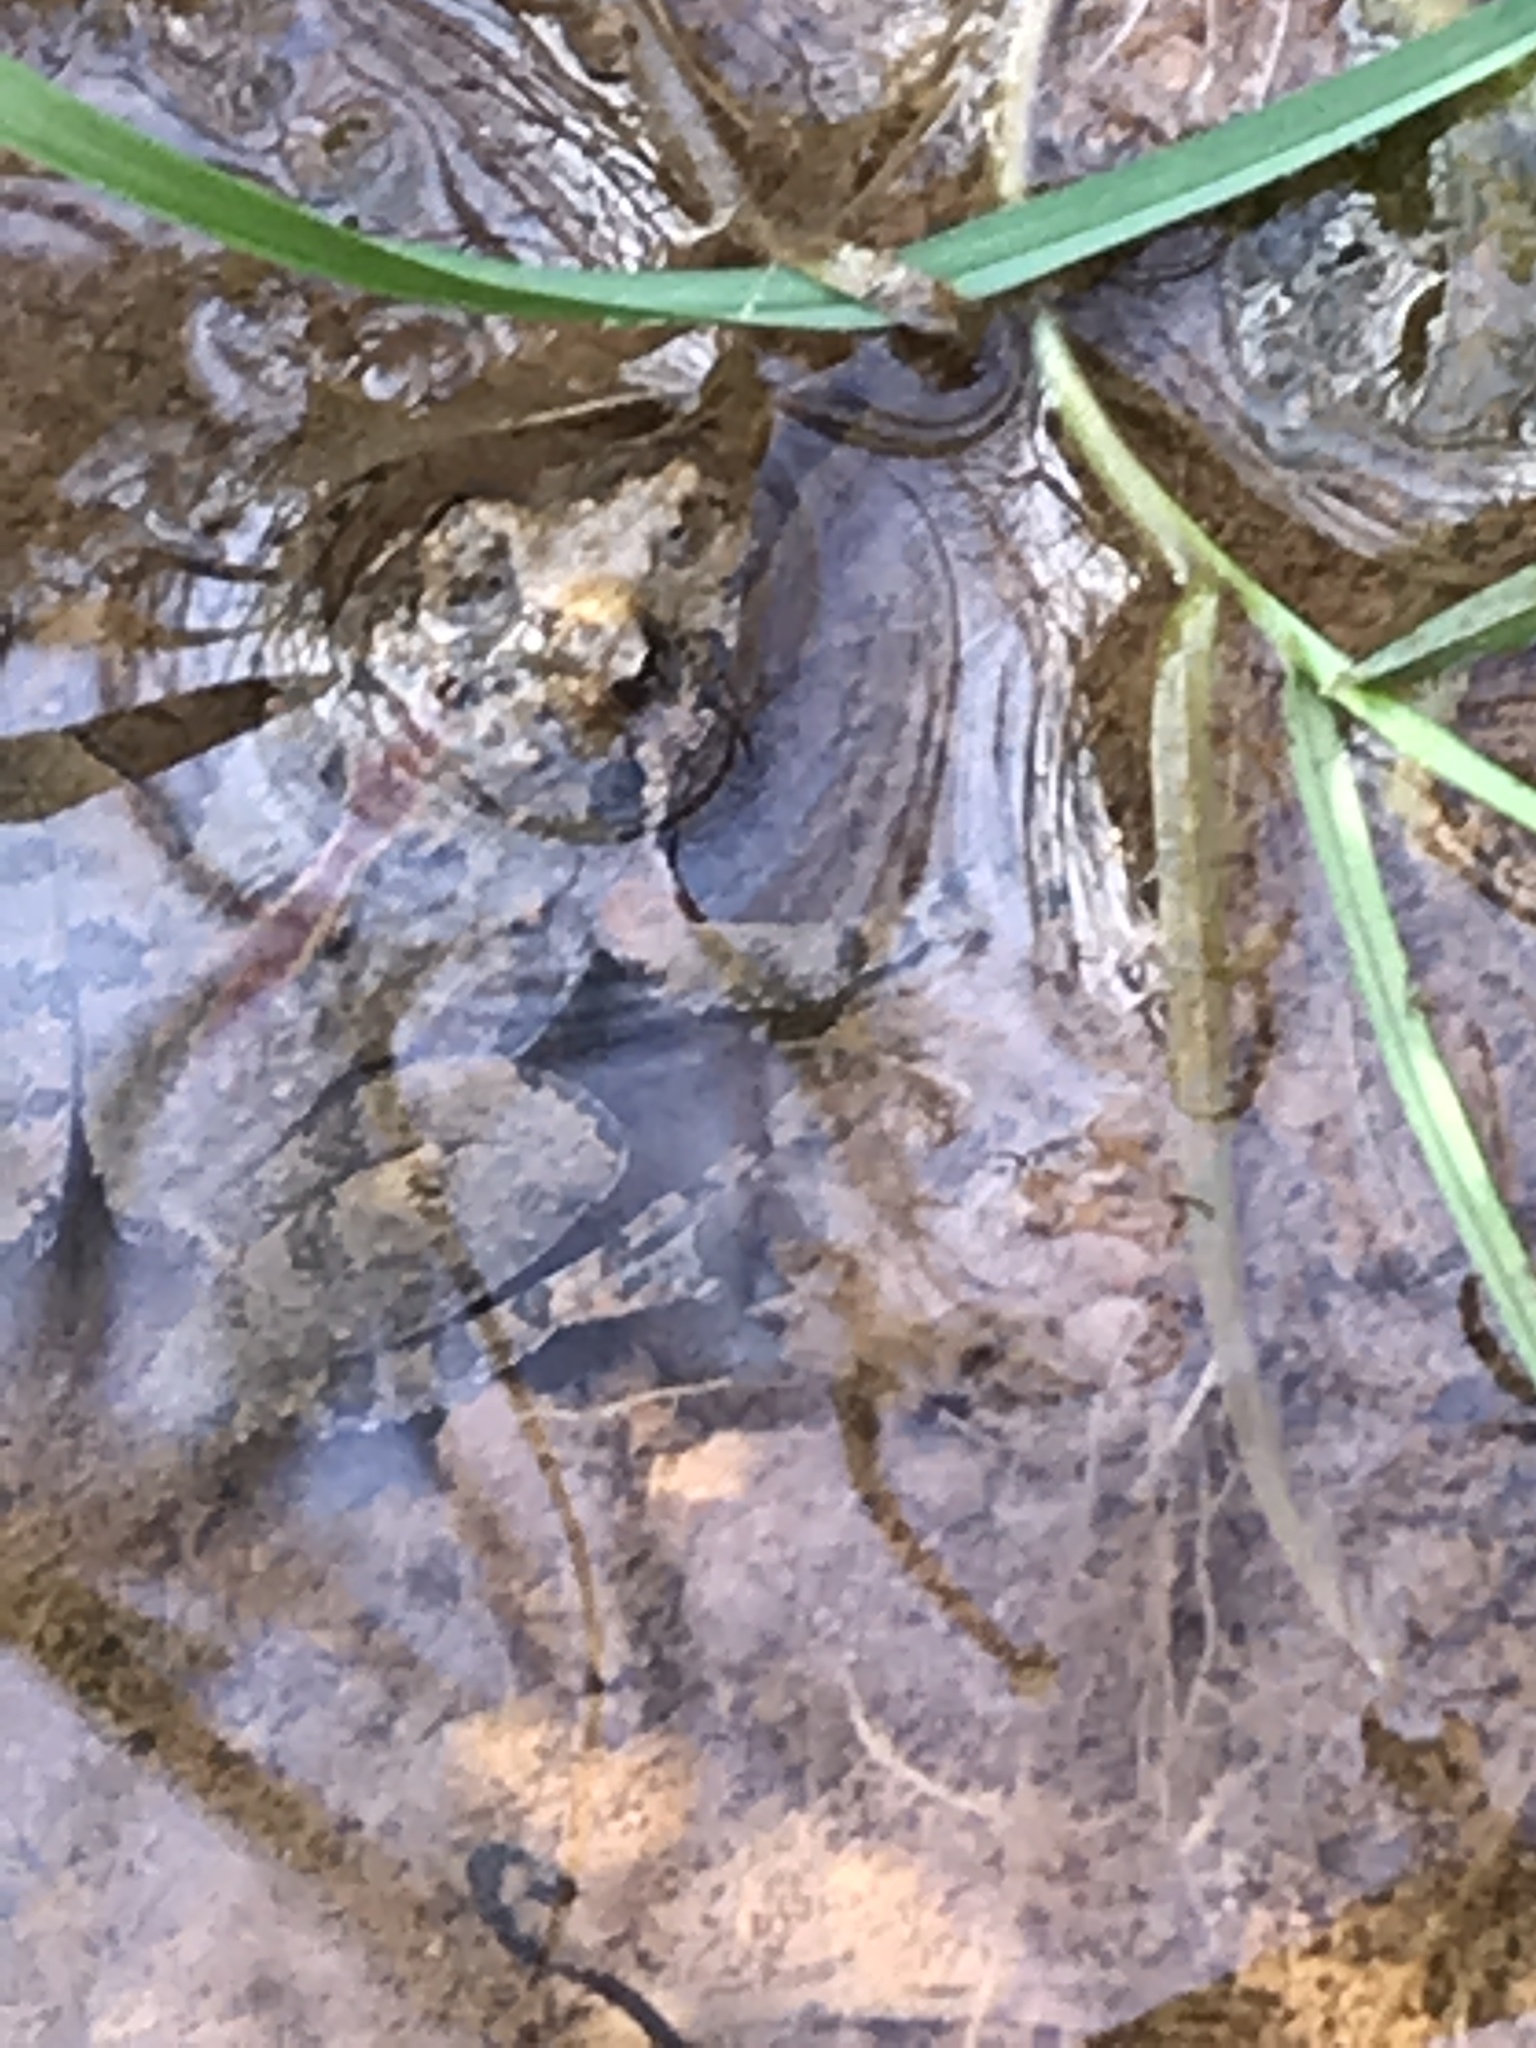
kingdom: Animalia
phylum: Chordata
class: Amphibia
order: Anura
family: Hylidae
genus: Acris
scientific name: Acris crepitans
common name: Northern cricket frog
